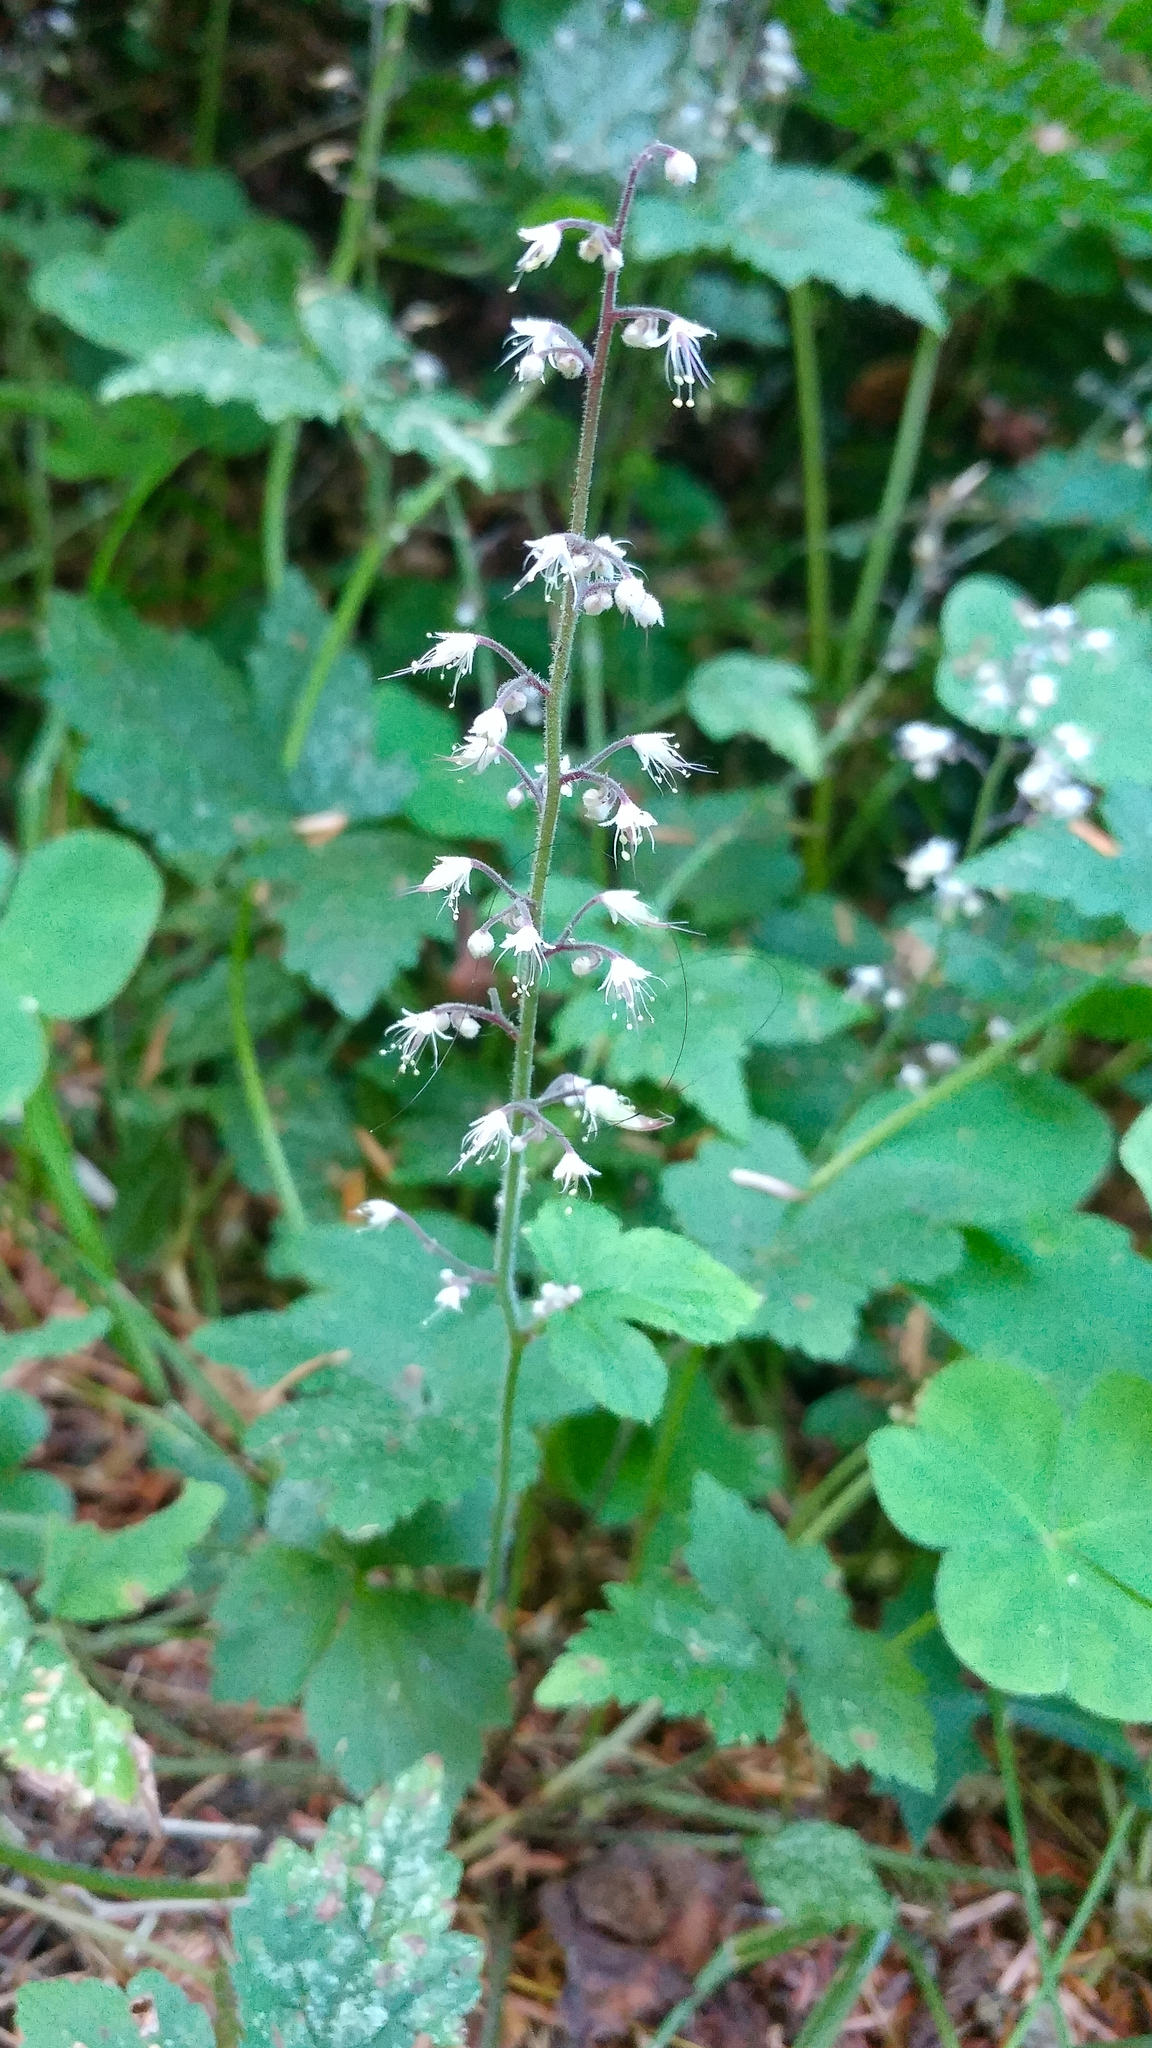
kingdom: Plantae
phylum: Tracheophyta
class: Magnoliopsida
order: Saxifragales
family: Saxifragaceae
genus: Tiarella
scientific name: Tiarella trifoliata
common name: Sugar-scoop
